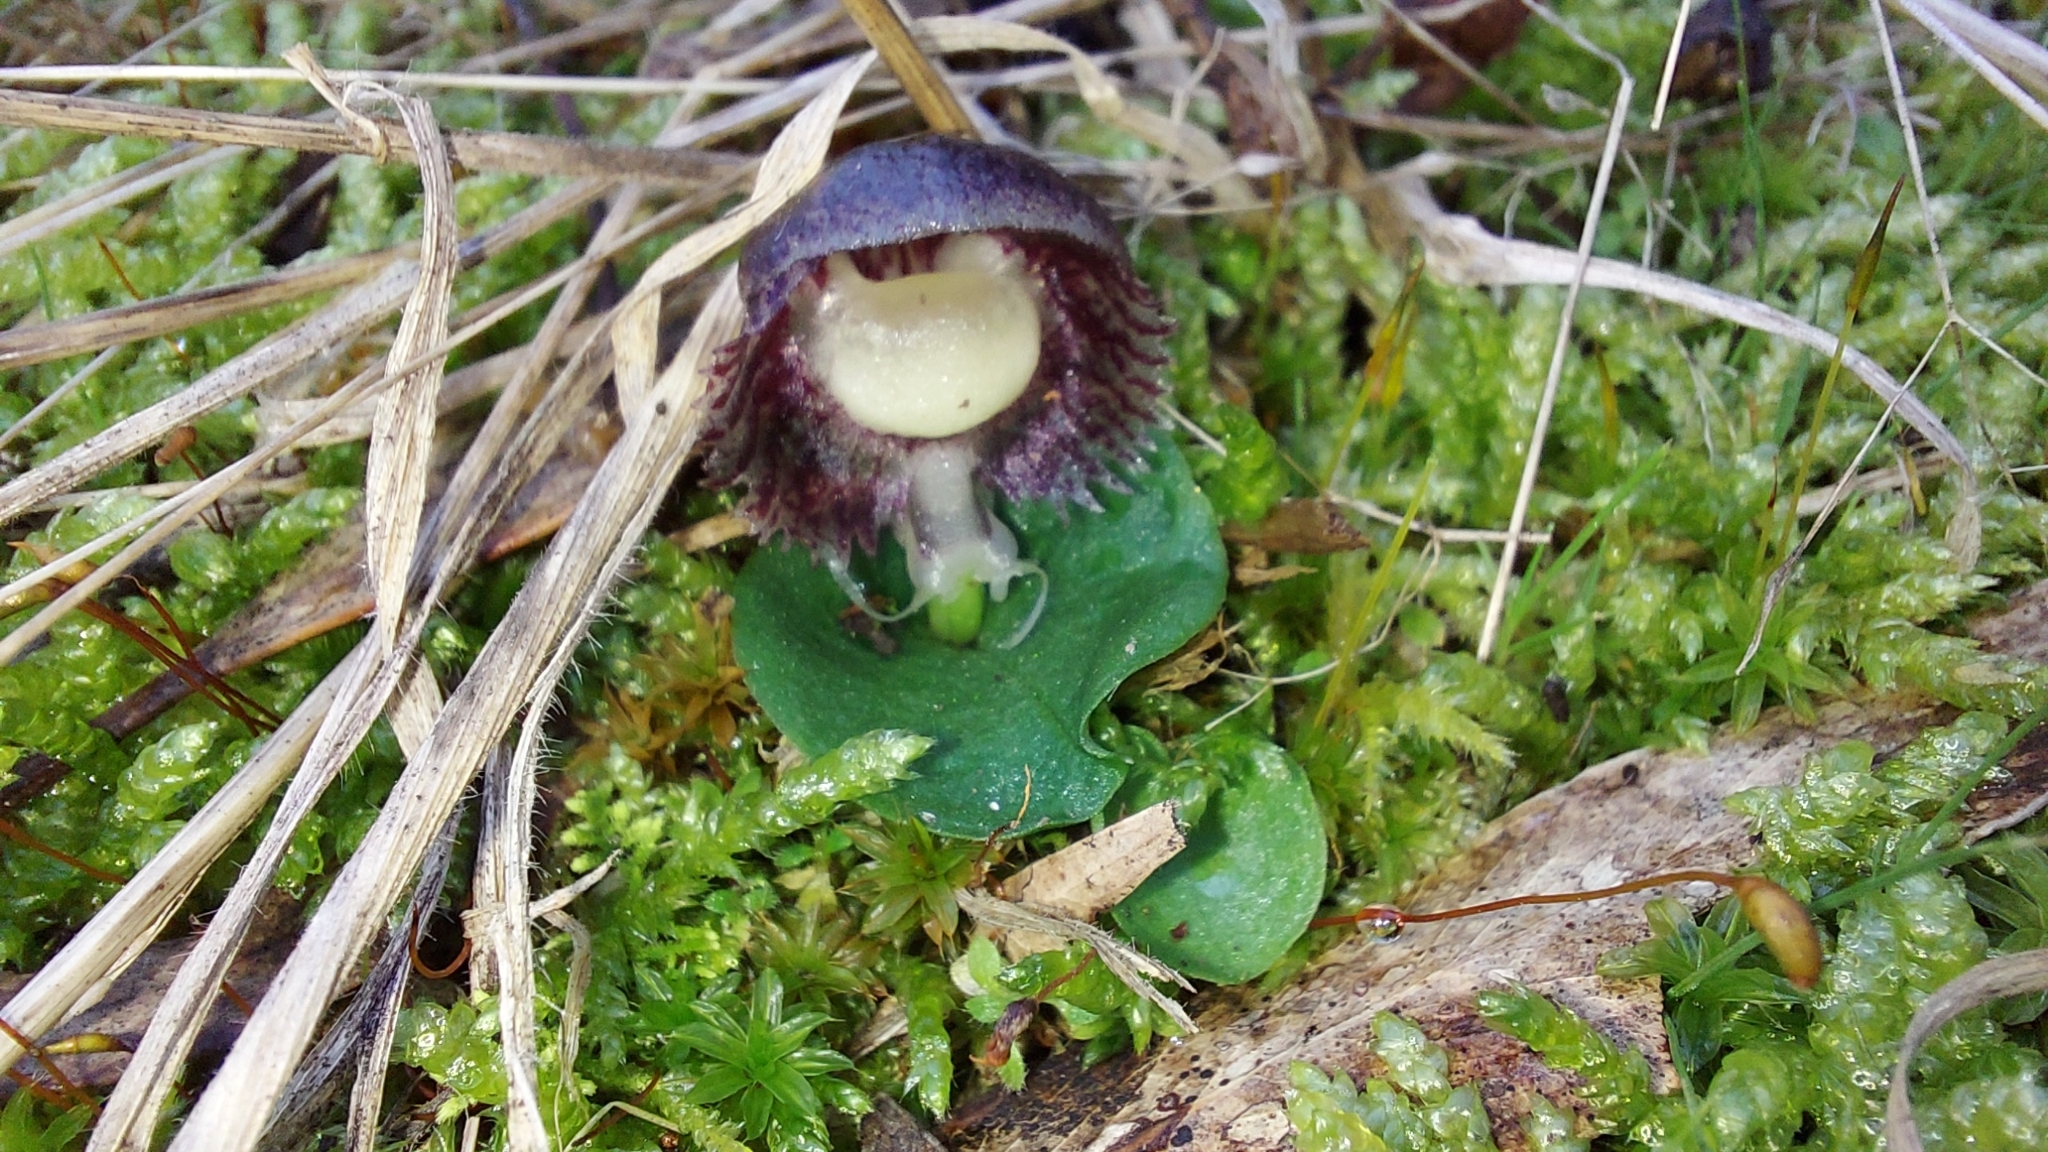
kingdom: Plantae
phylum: Tracheophyta
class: Liliopsida
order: Asparagales
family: Orchidaceae
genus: Corybas
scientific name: Corybas diemenicus
